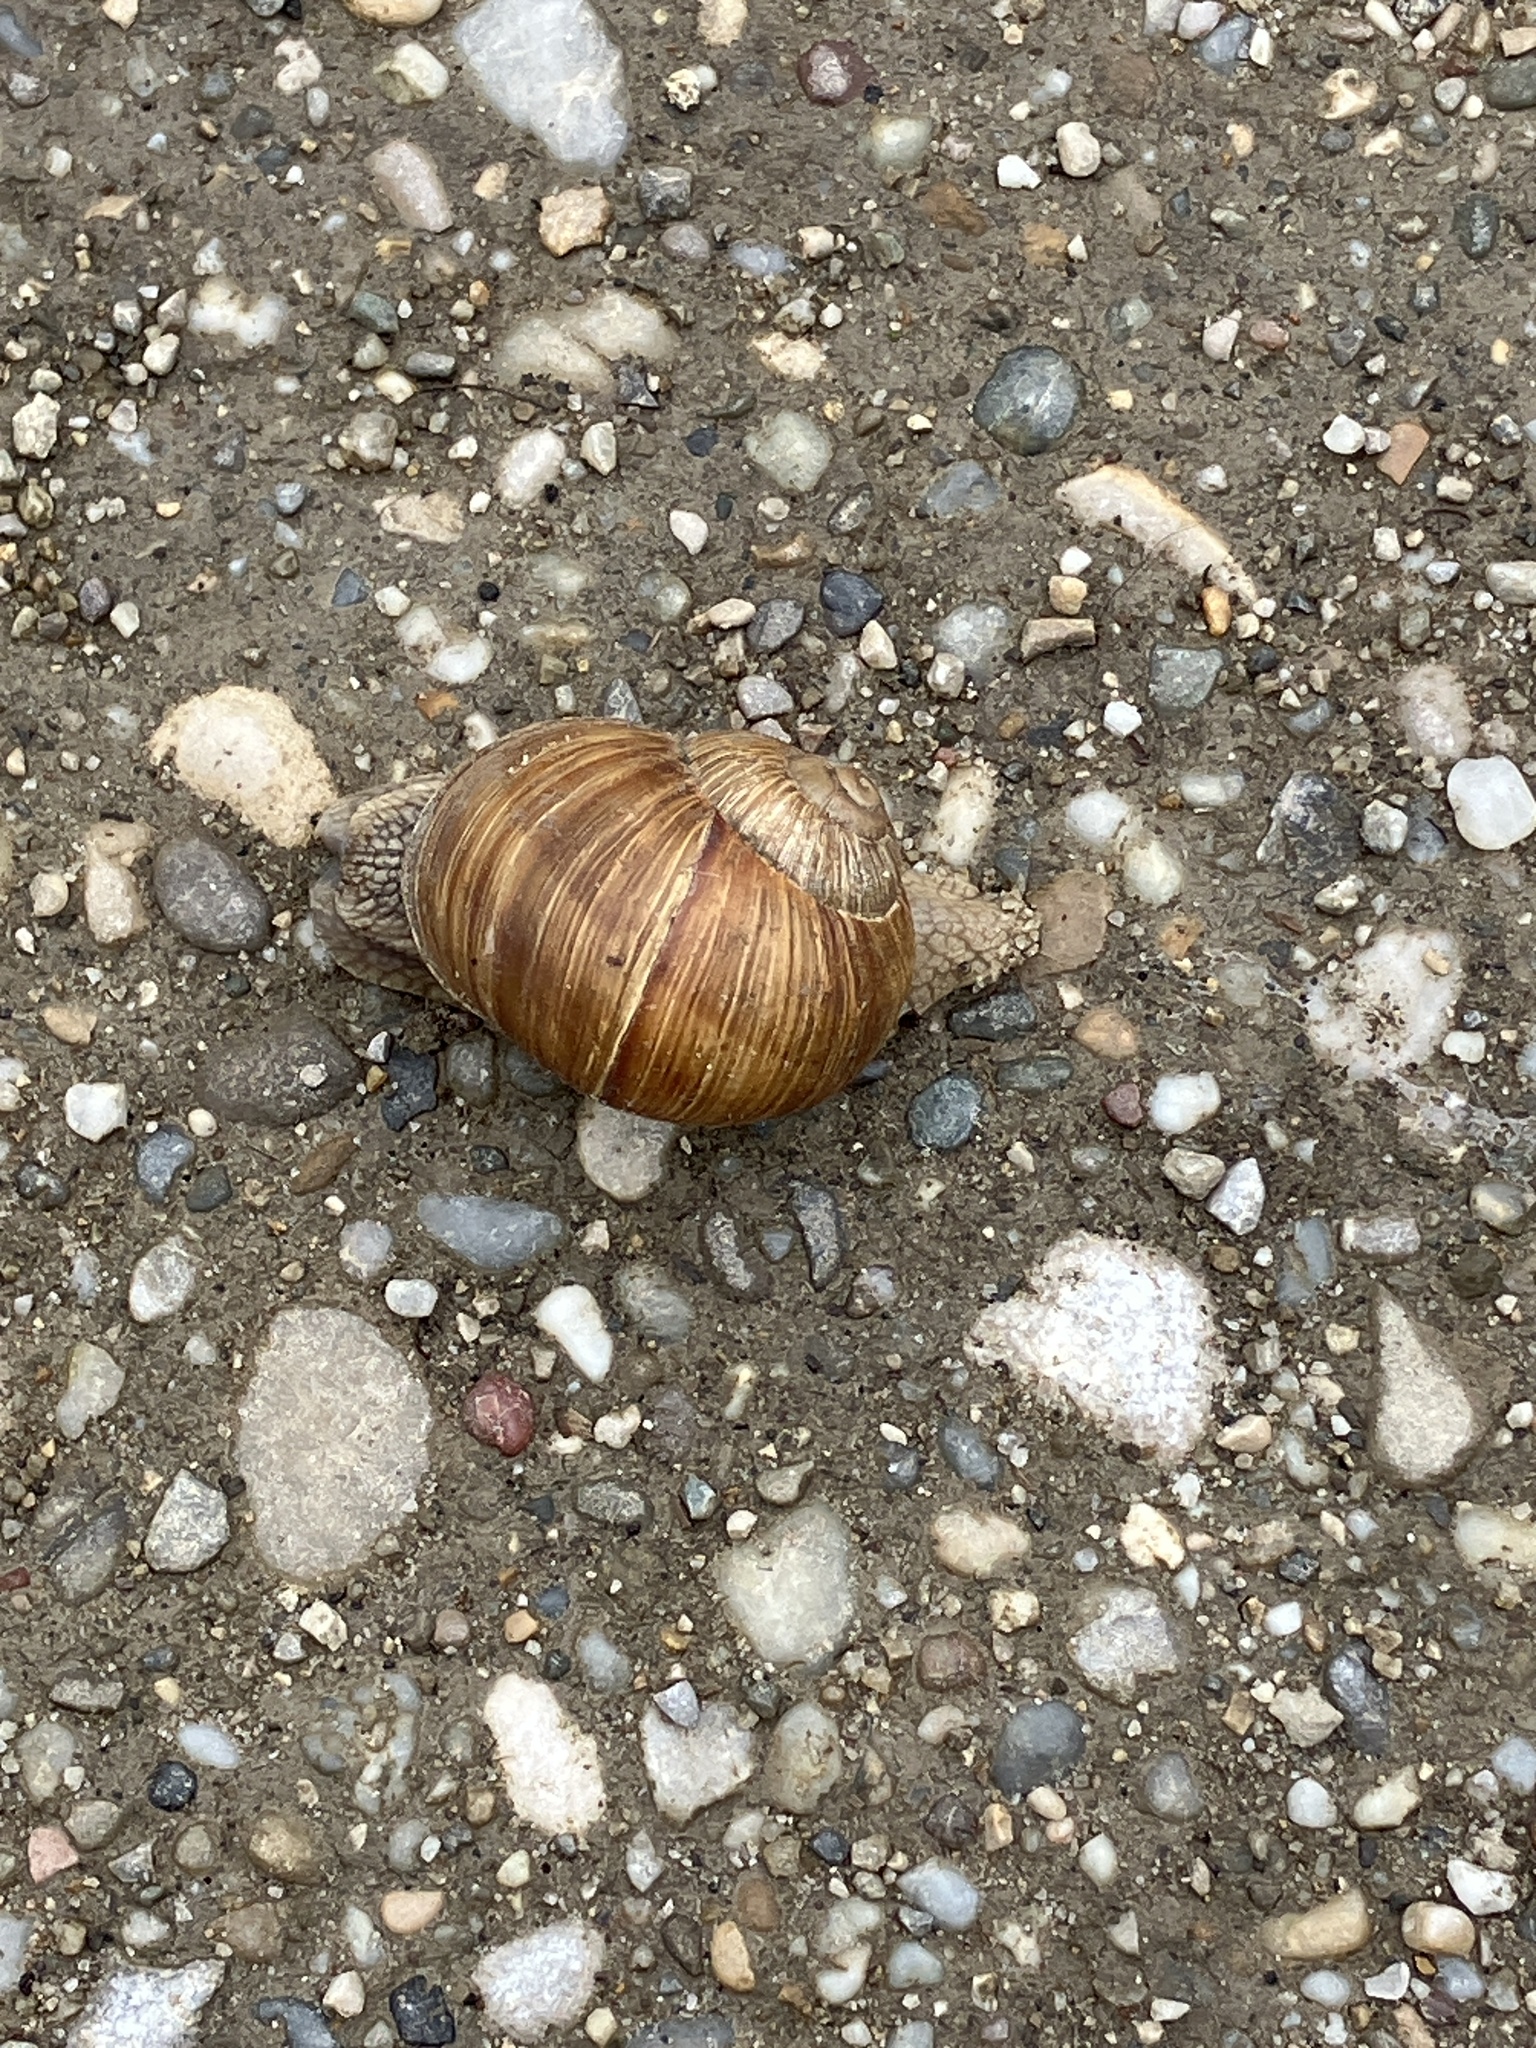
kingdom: Animalia
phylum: Mollusca
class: Gastropoda
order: Stylommatophora
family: Helicidae
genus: Helix
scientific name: Helix pomatia
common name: Roman snail
